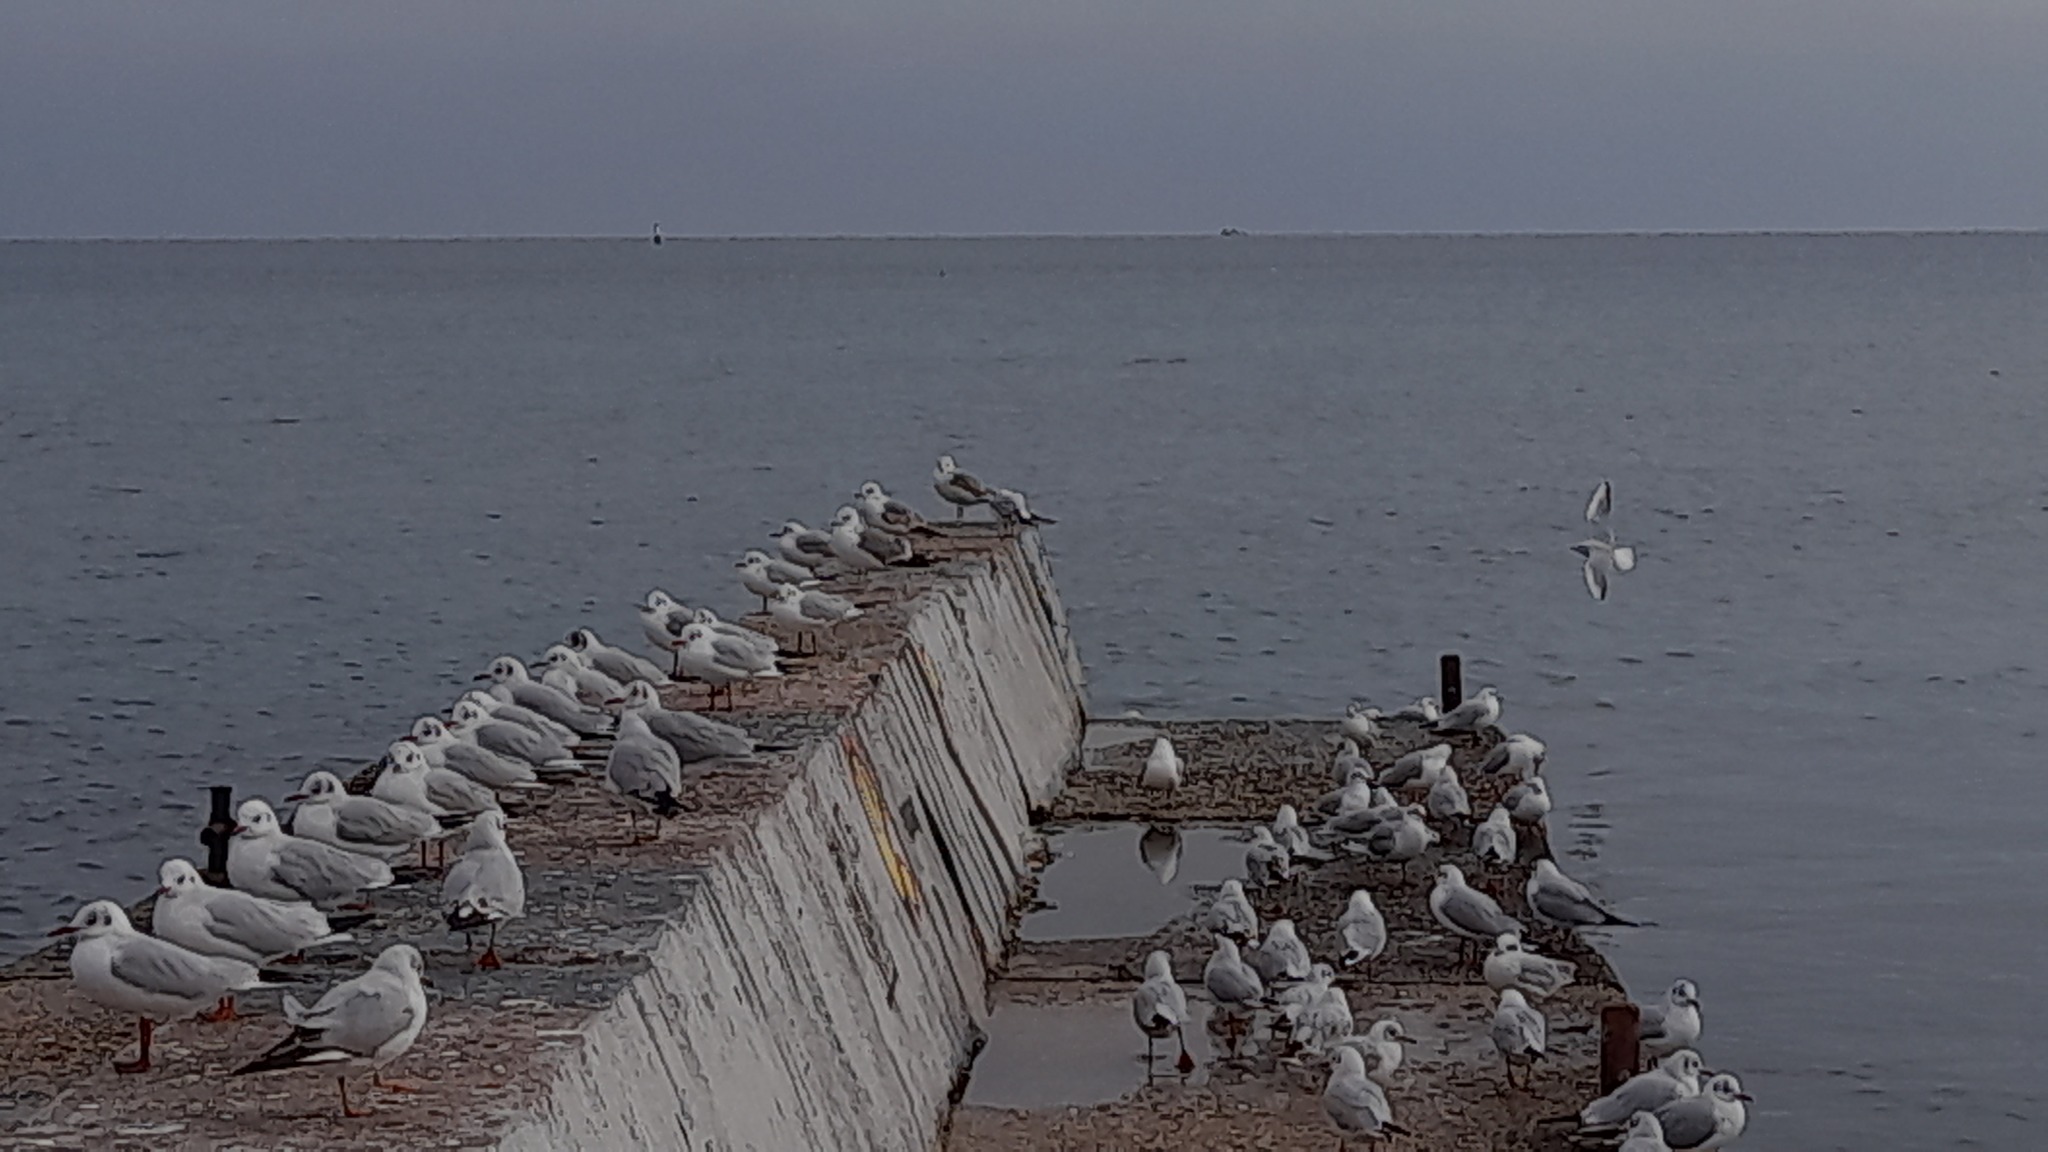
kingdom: Animalia
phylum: Chordata
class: Aves
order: Charadriiformes
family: Laridae
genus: Larus
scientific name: Larus canus
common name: Mew gull
